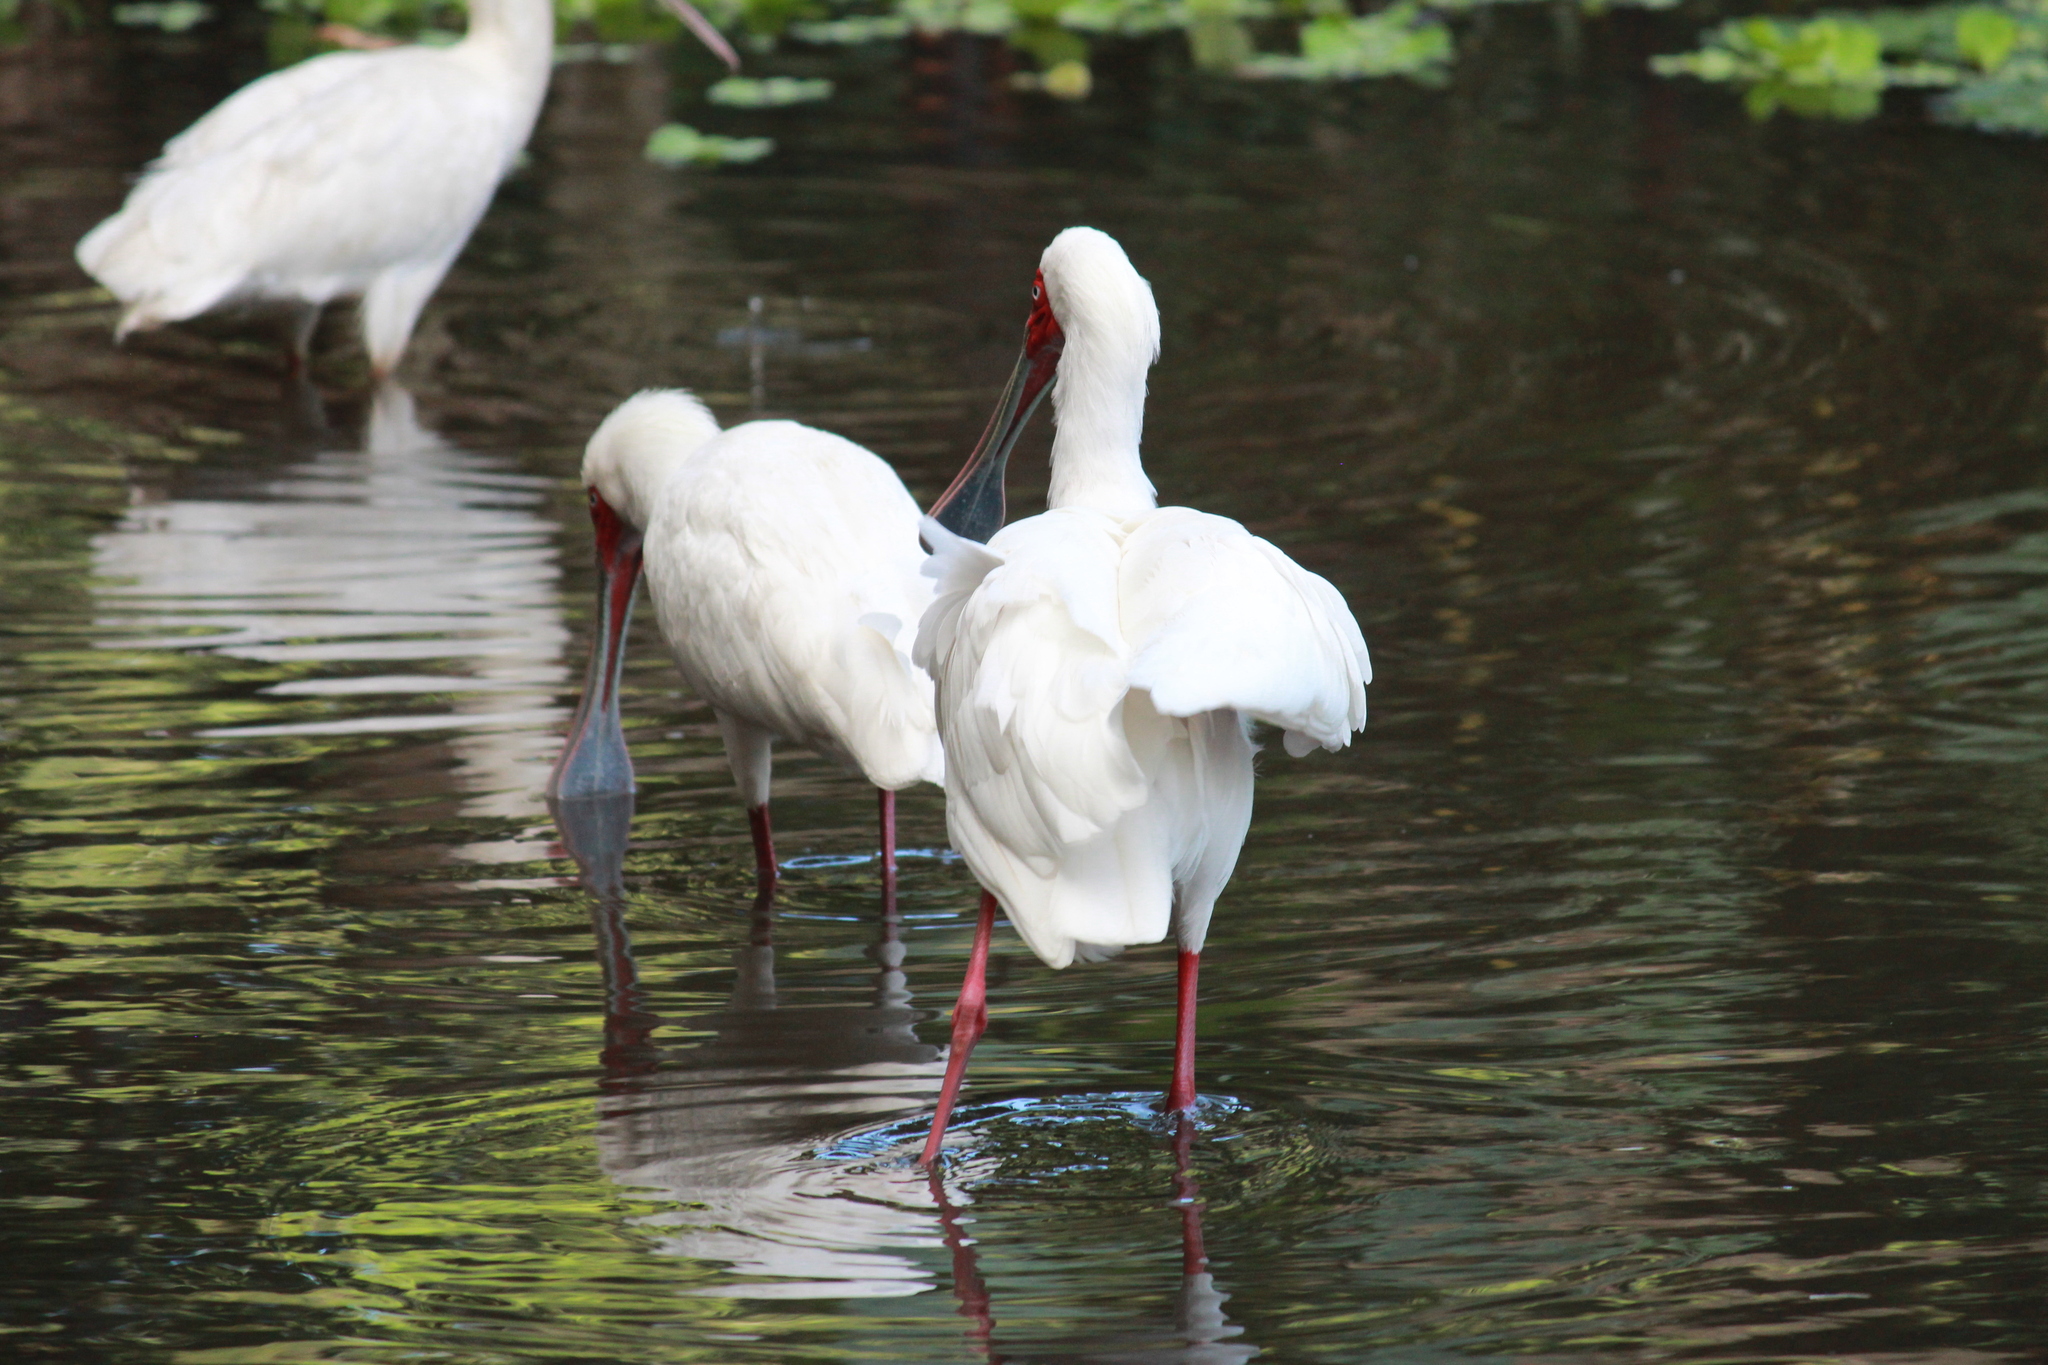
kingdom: Animalia
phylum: Chordata
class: Aves
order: Pelecaniformes
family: Threskiornithidae
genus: Platalea
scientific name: Platalea alba
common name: African spoonbill
